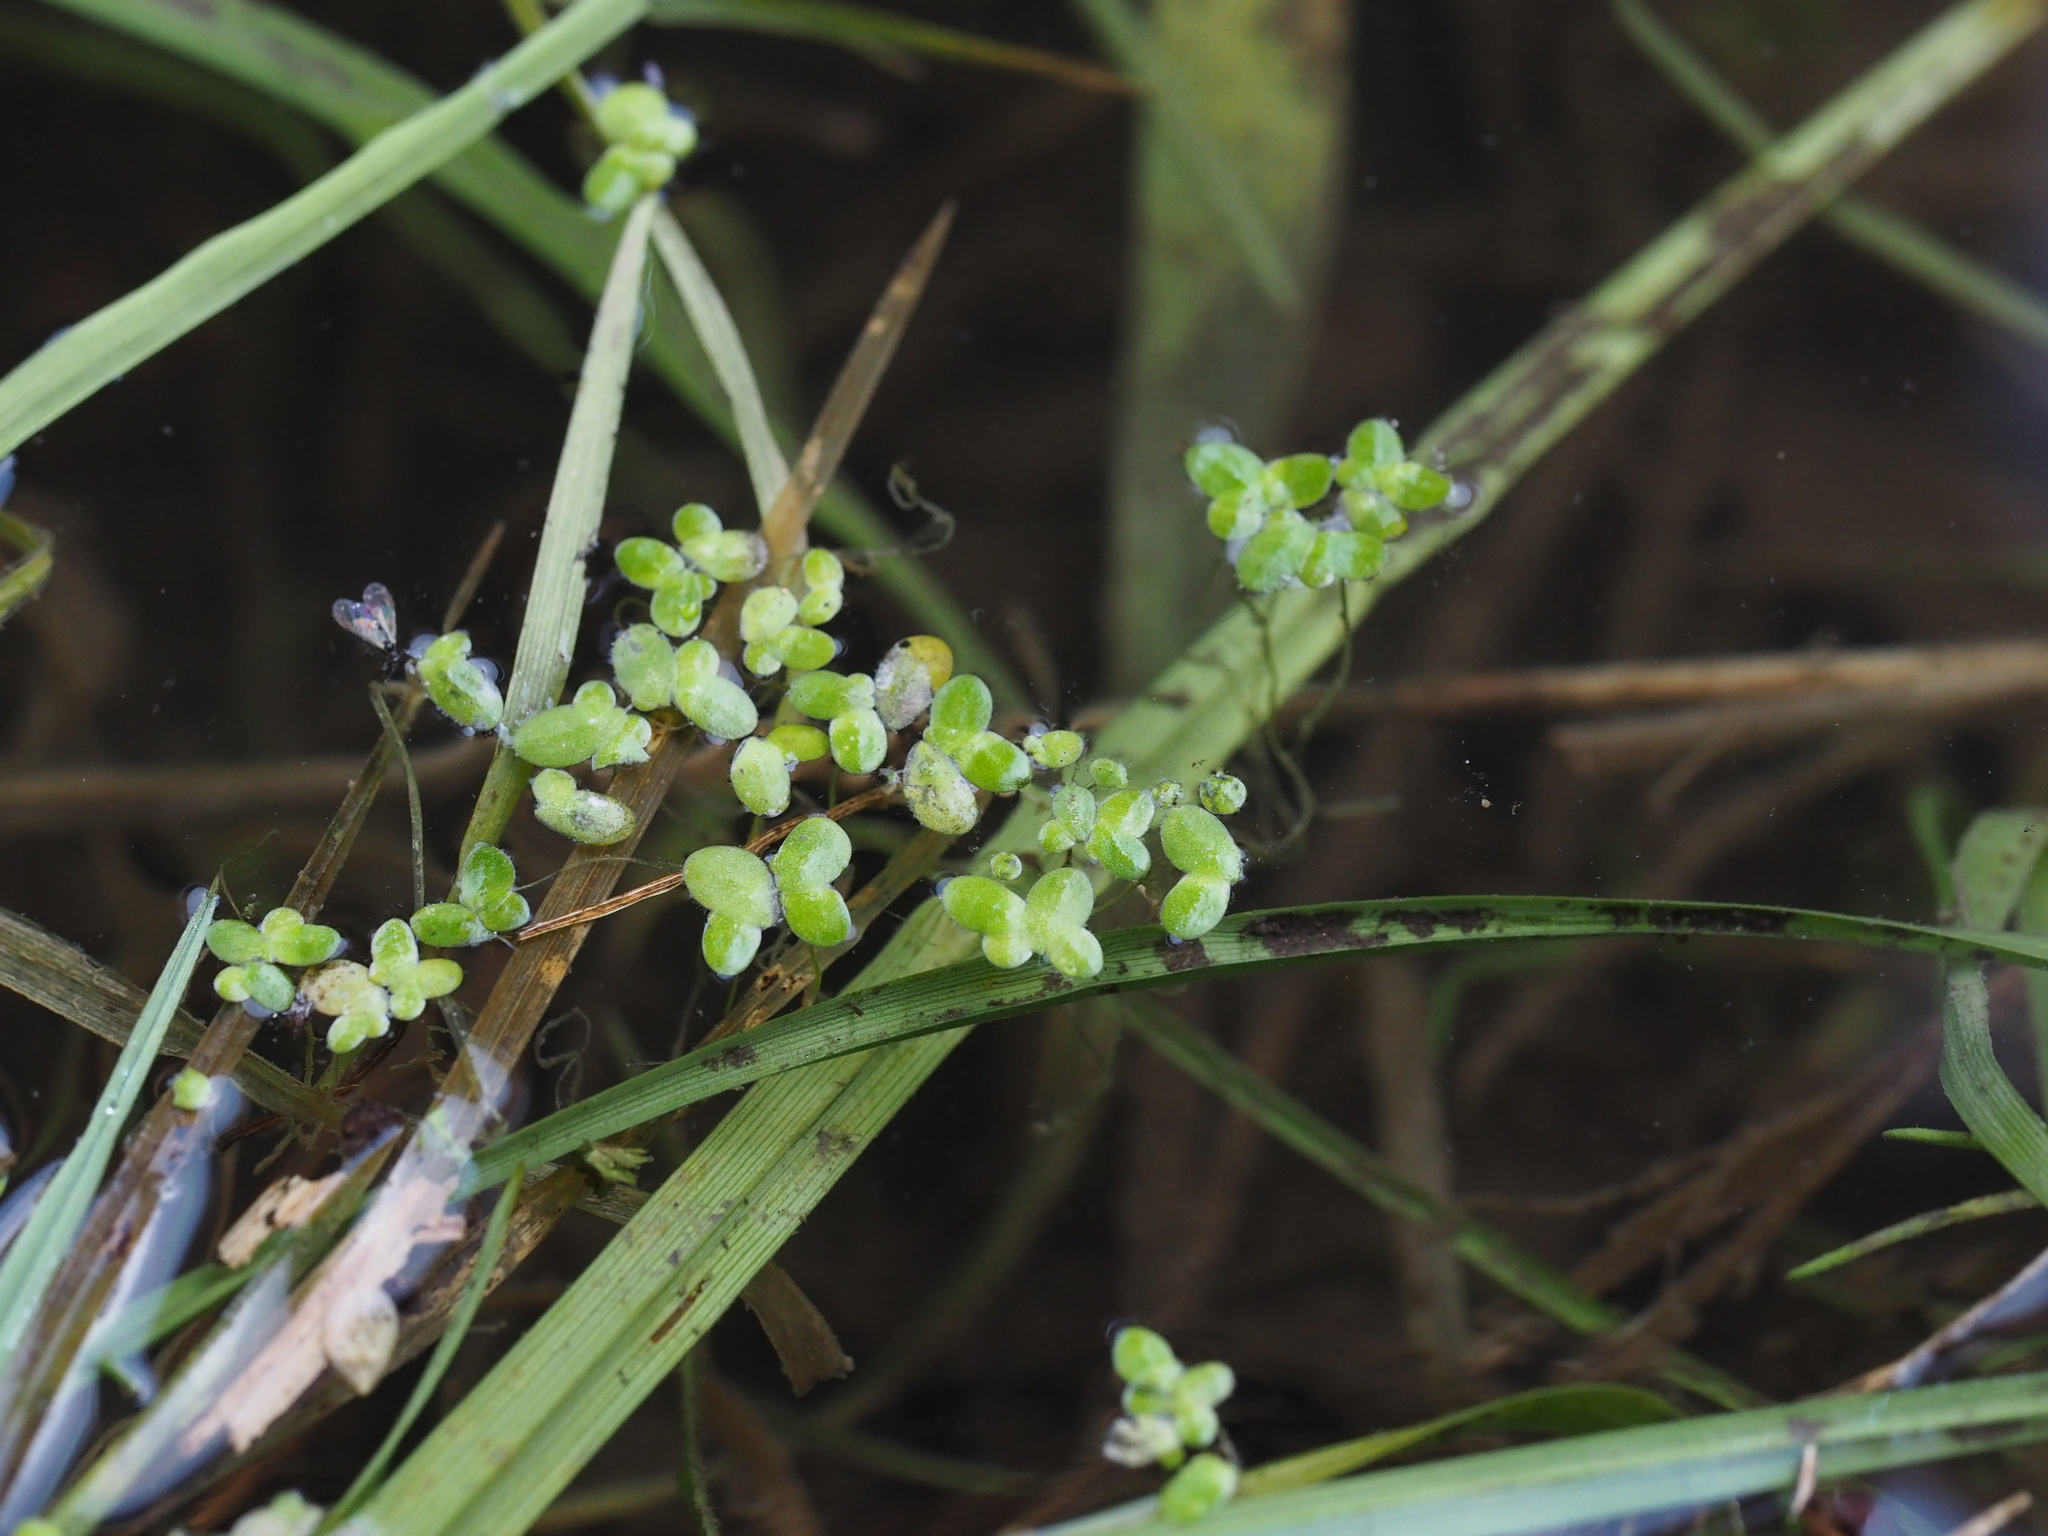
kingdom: Plantae
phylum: Tracheophyta
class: Liliopsida
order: Alismatales
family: Araceae
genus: Lemna
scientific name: Lemna minor
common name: Common duckweed
